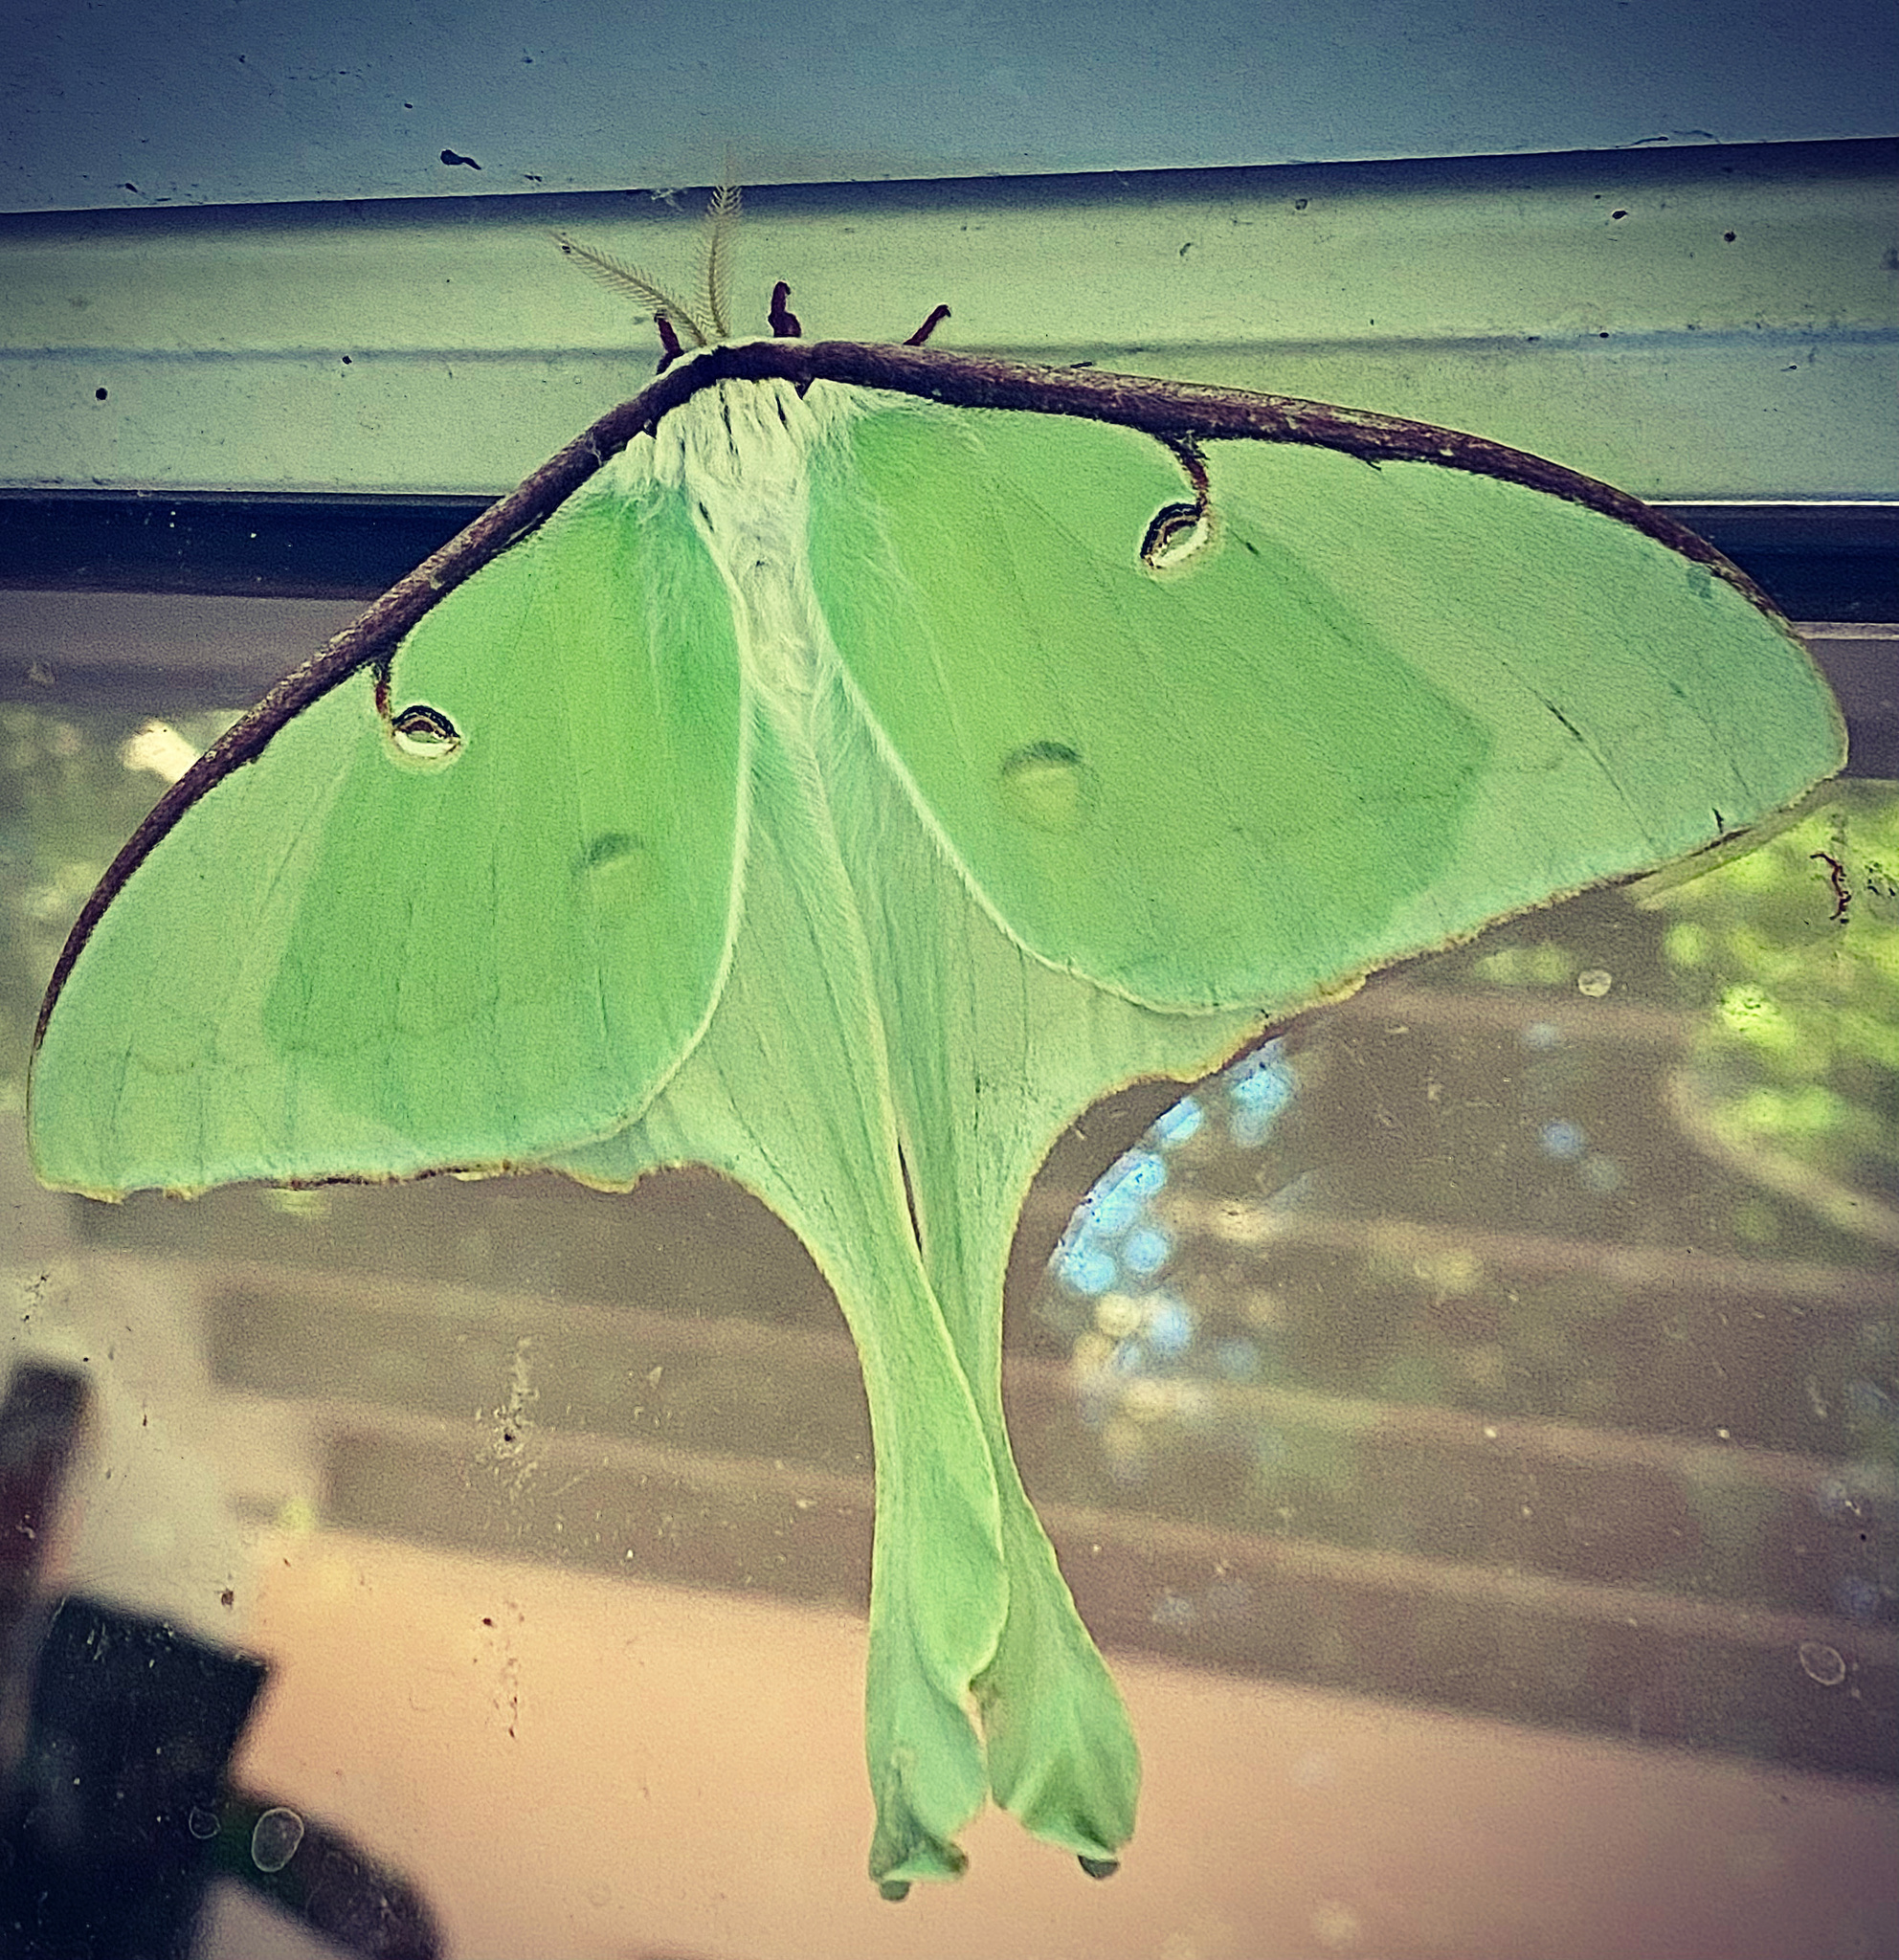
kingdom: Animalia
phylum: Arthropoda
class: Insecta
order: Lepidoptera
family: Saturniidae
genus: Actias
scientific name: Actias luna
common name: Luna moth
